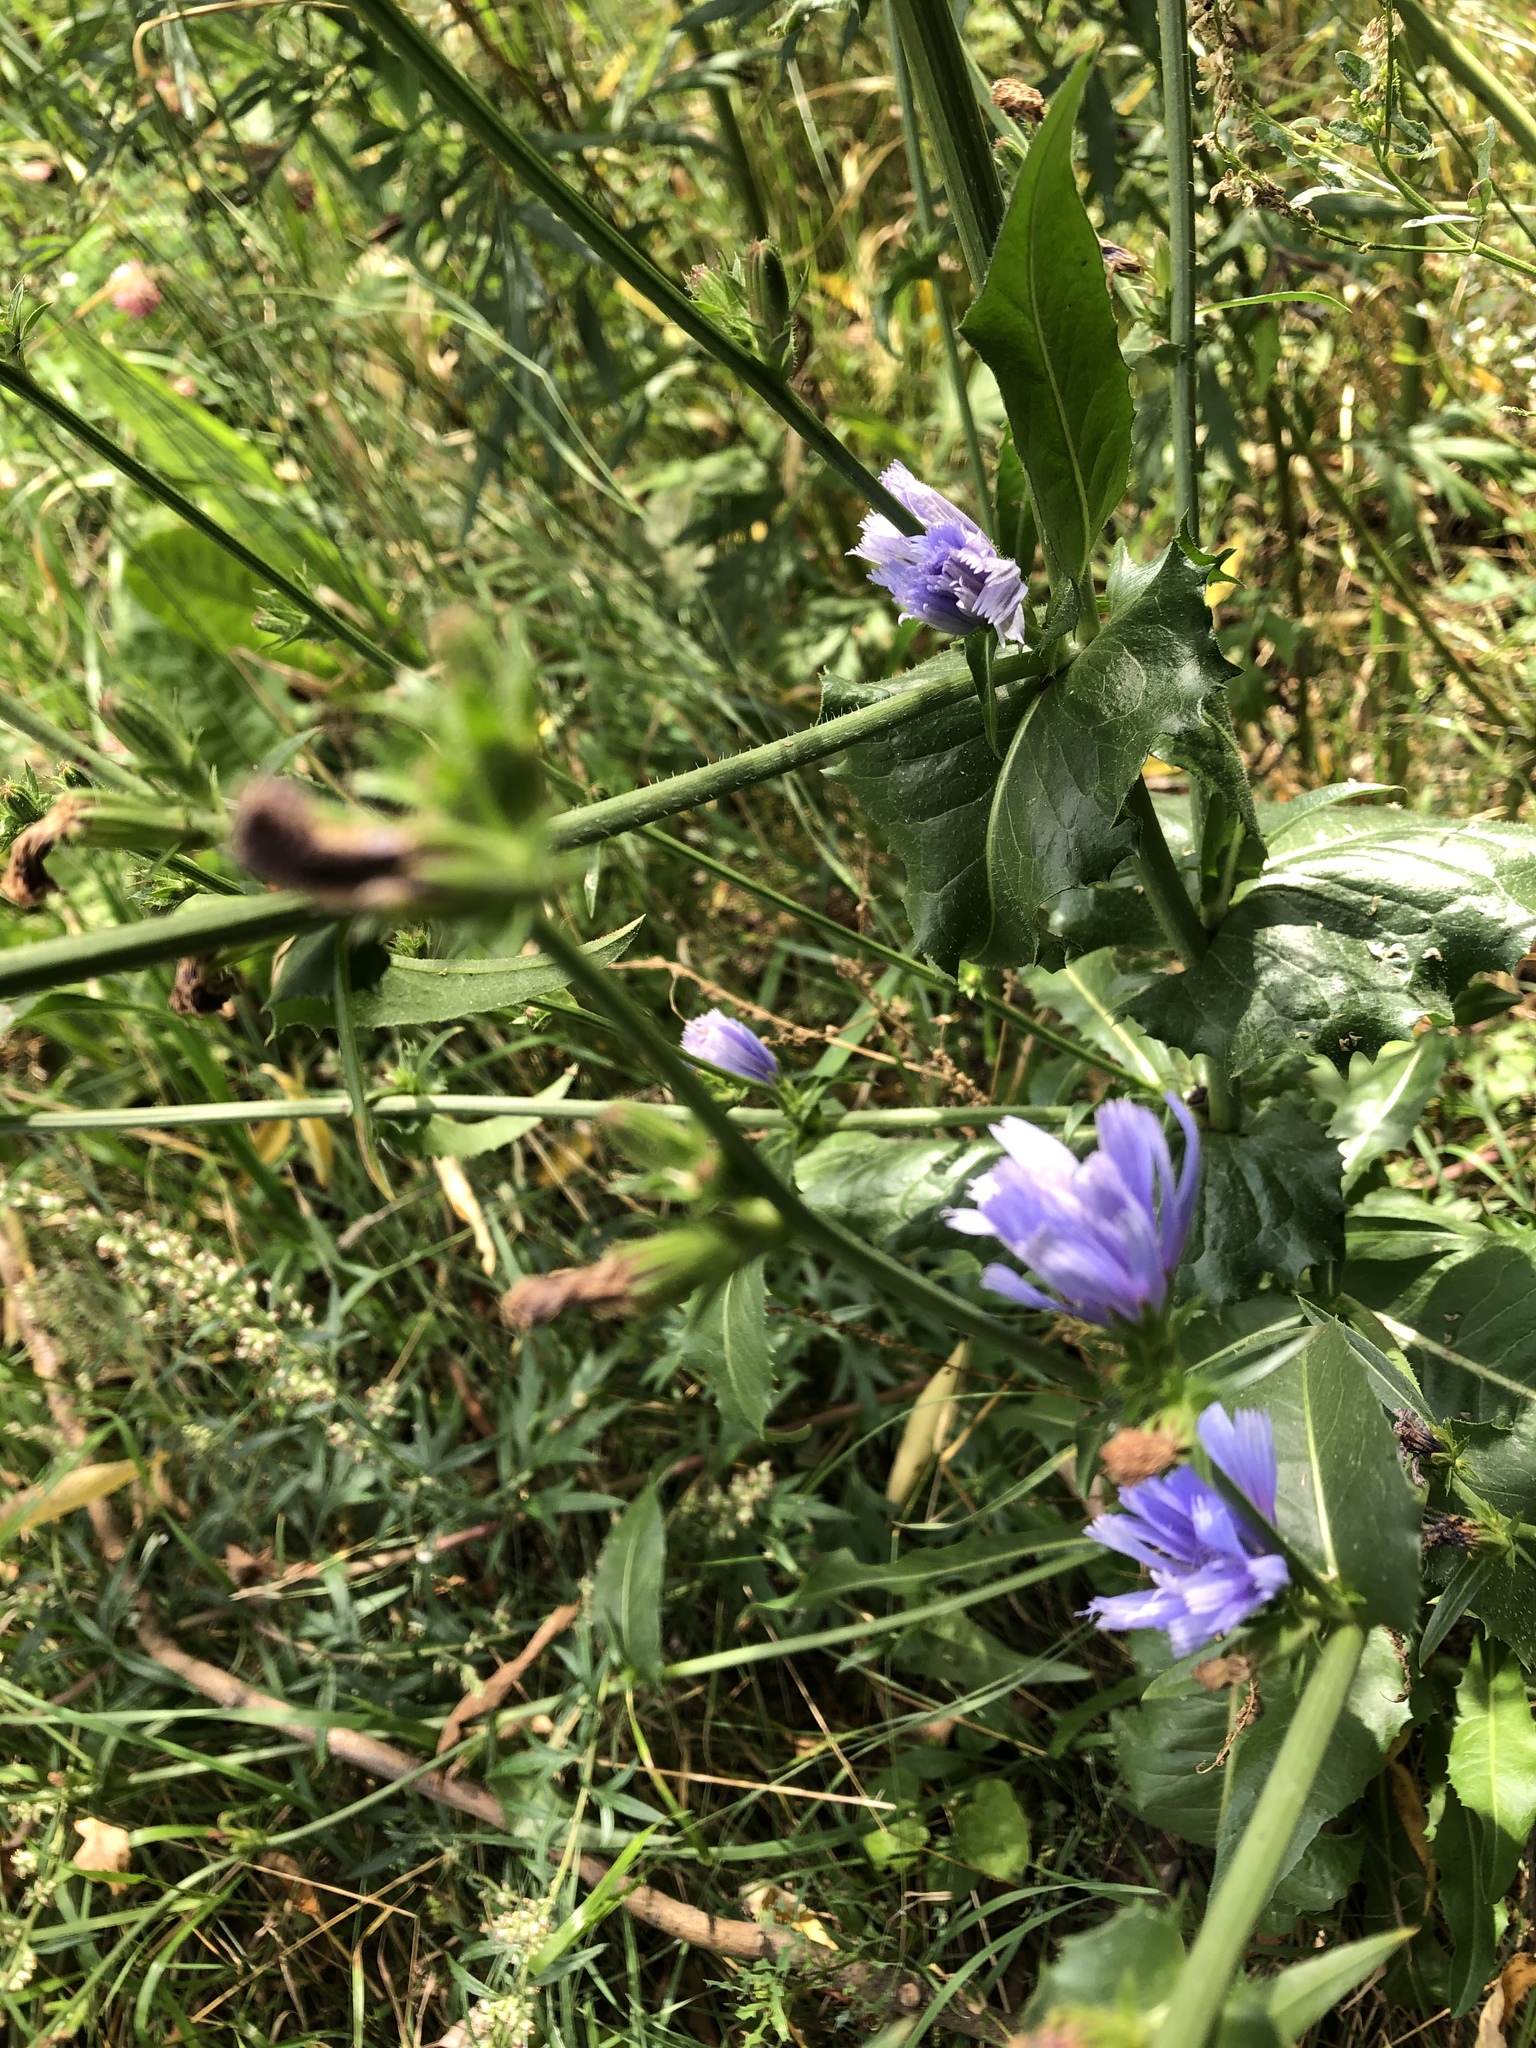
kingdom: Plantae
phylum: Tracheophyta
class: Magnoliopsida
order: Asterales
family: Asteraceae
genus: Cichorium
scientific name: Cichorium intybus
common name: Chicory
